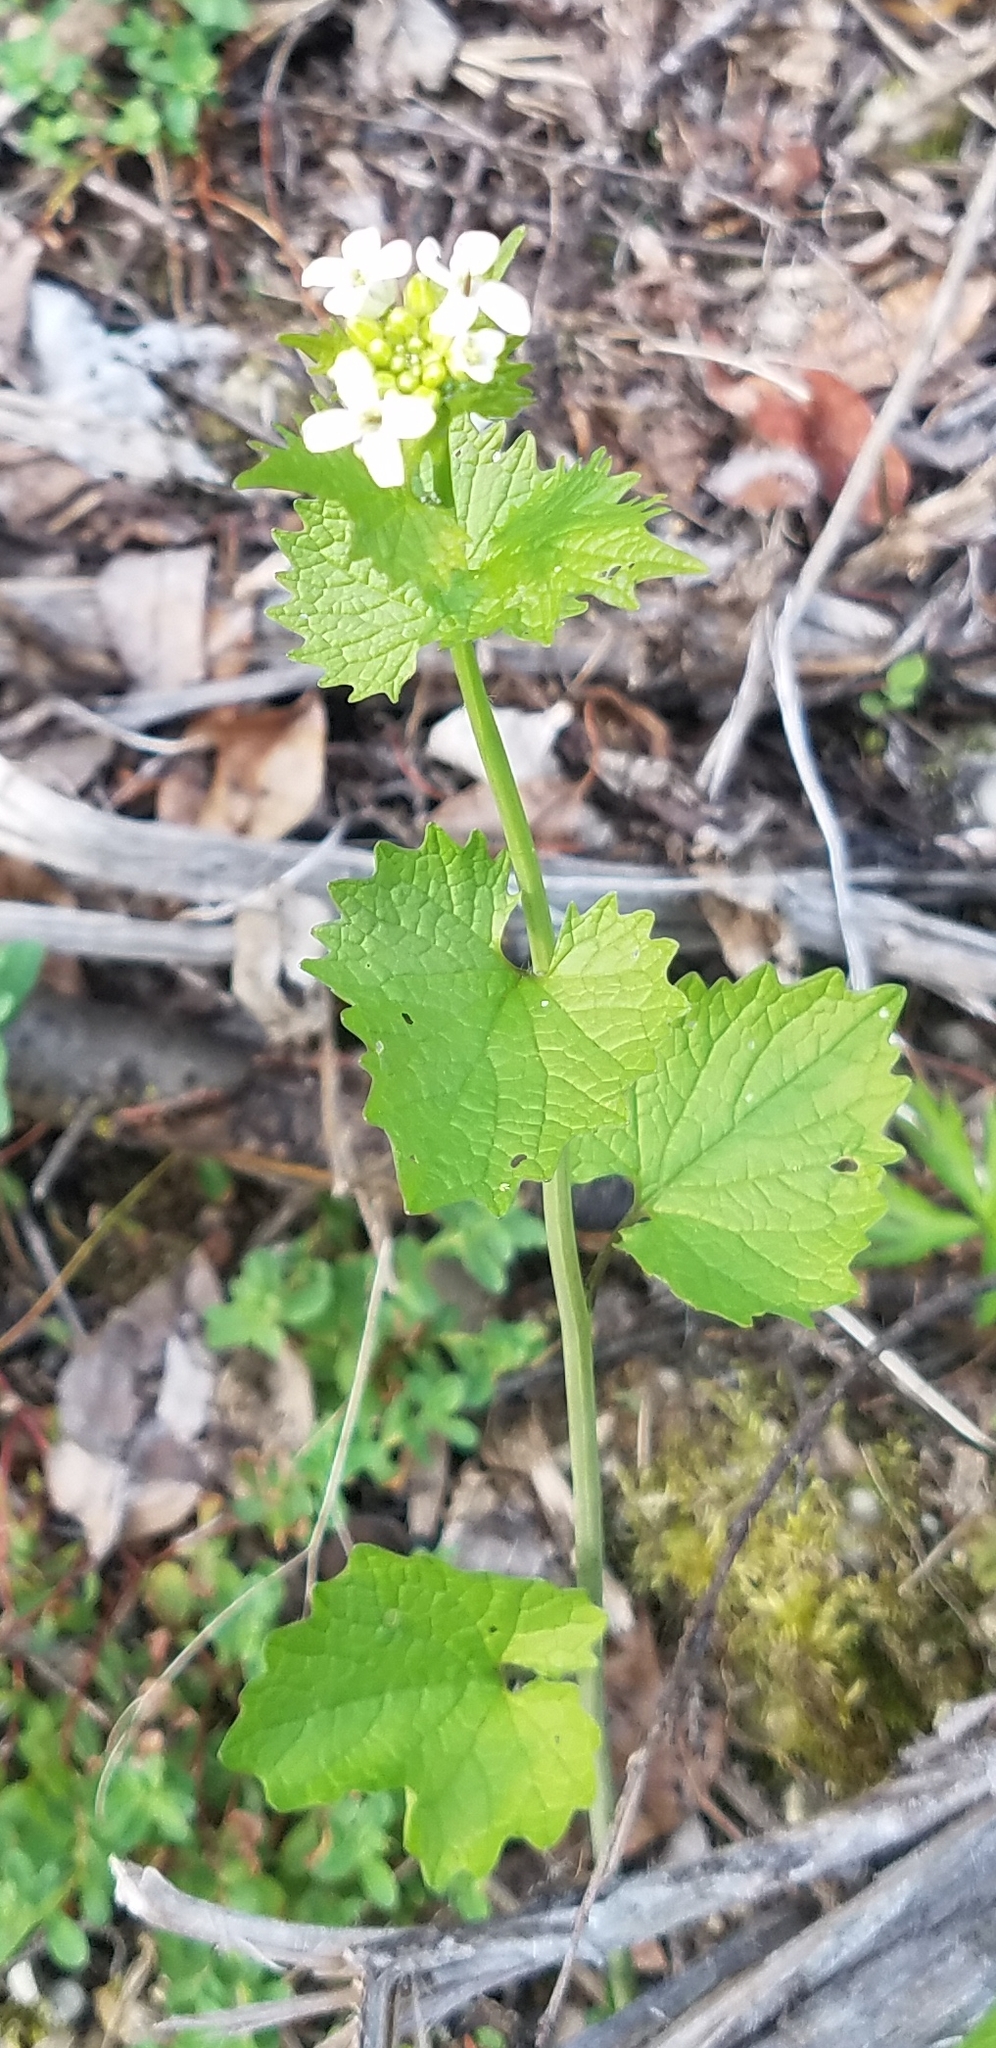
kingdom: Plantae
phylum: Tracheophyta
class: Magnoliopsida
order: Brassicales
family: Brassicaceae
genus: Alliaria
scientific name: Alliaria petiolata
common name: Garlic mustard
